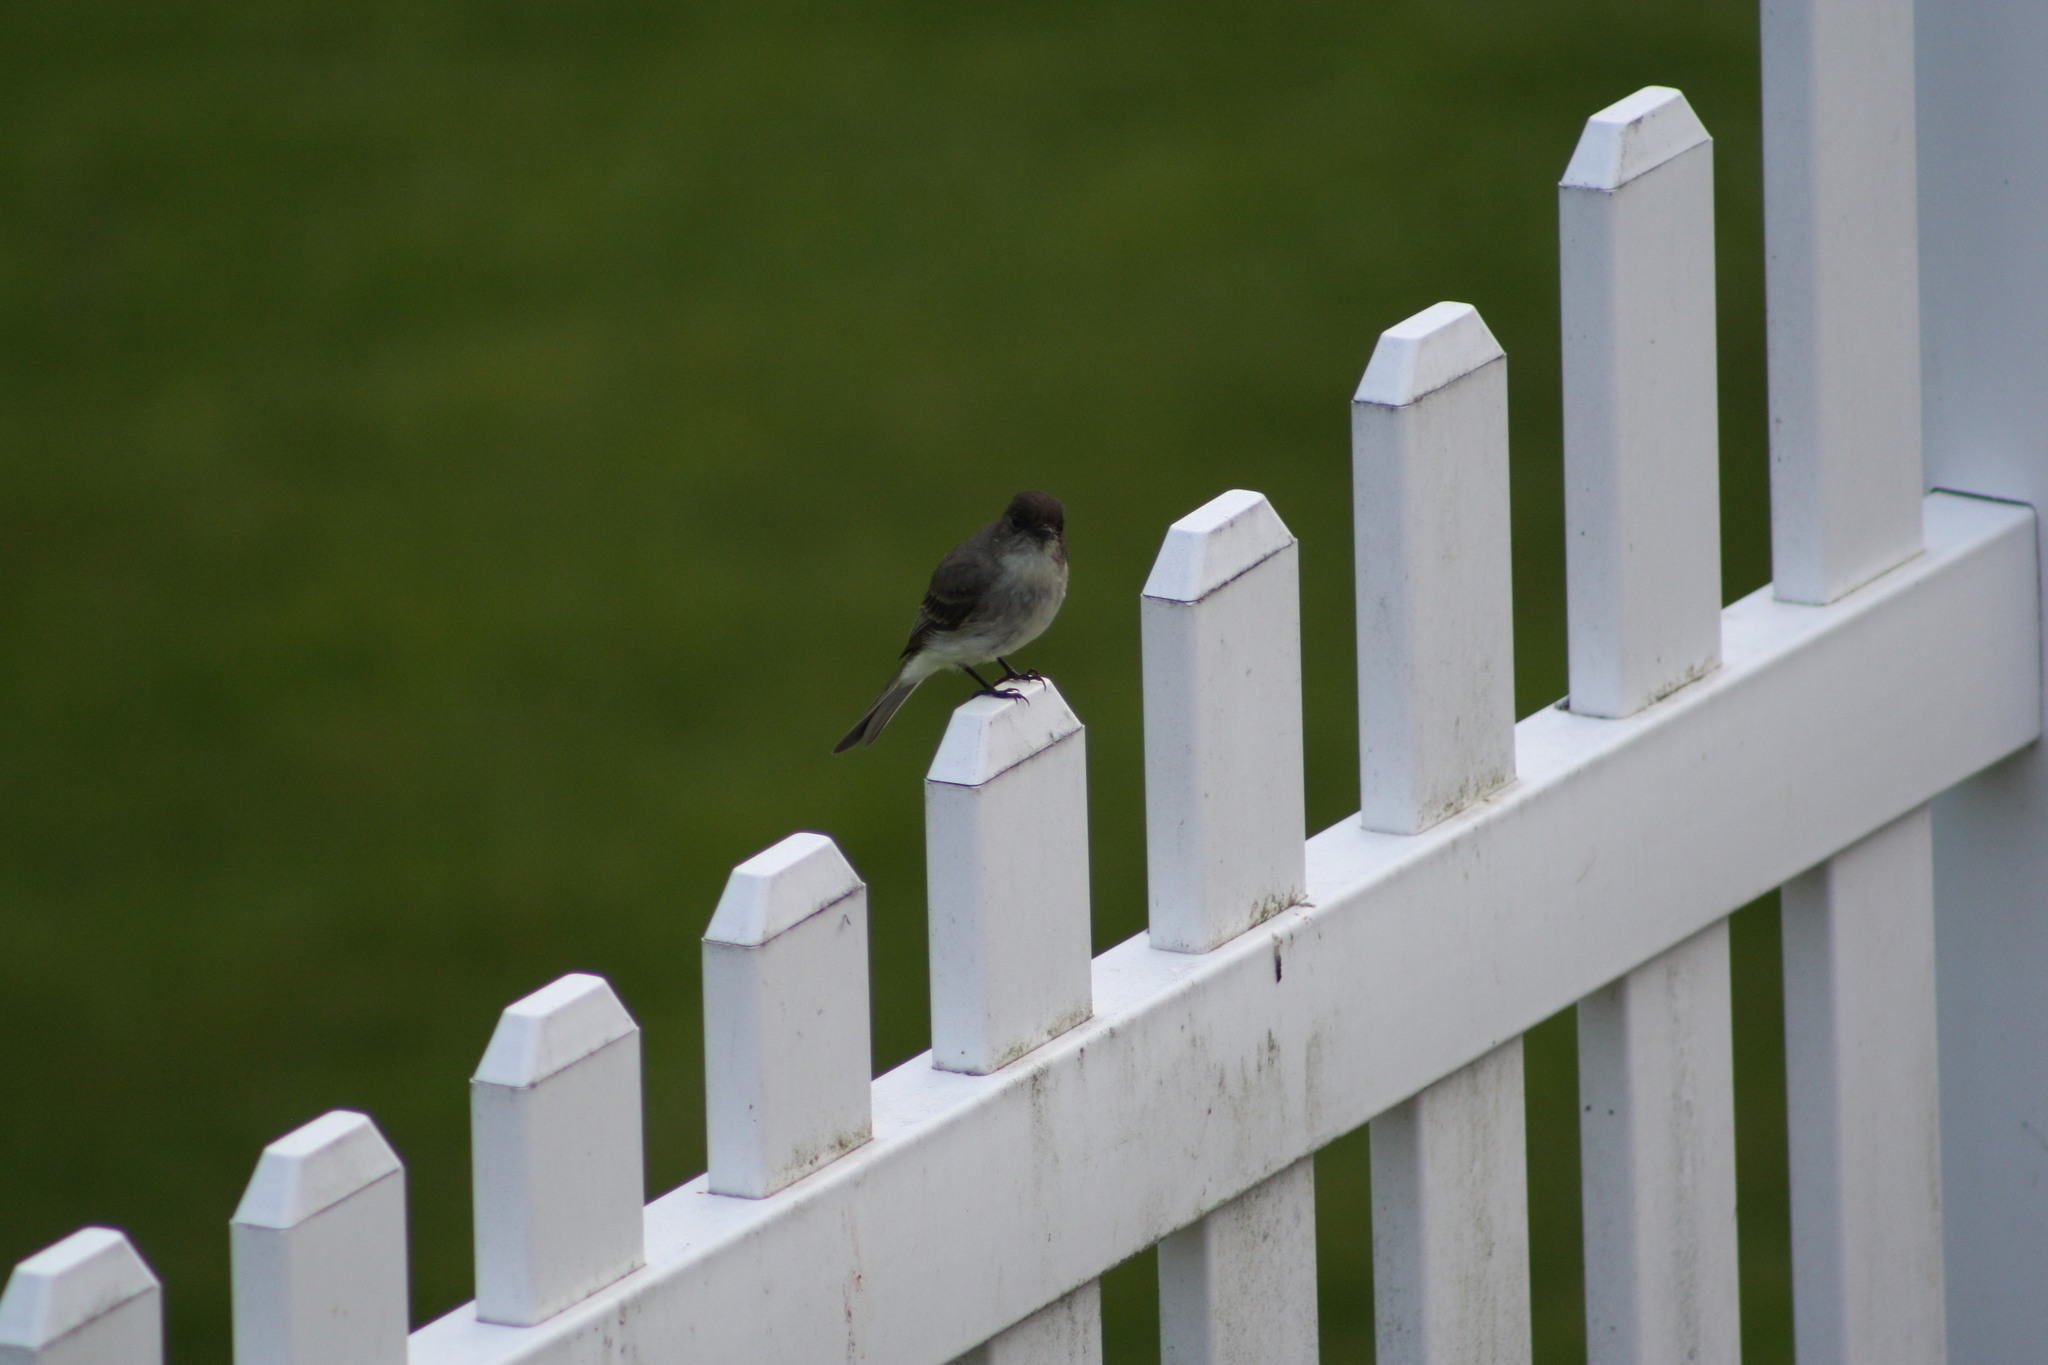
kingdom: Animalia
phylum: Chordata
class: Aves
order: Passeriformes
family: Tyrannidae
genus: Sayornis
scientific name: Sayornis phoebe
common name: Eastern phoebe
